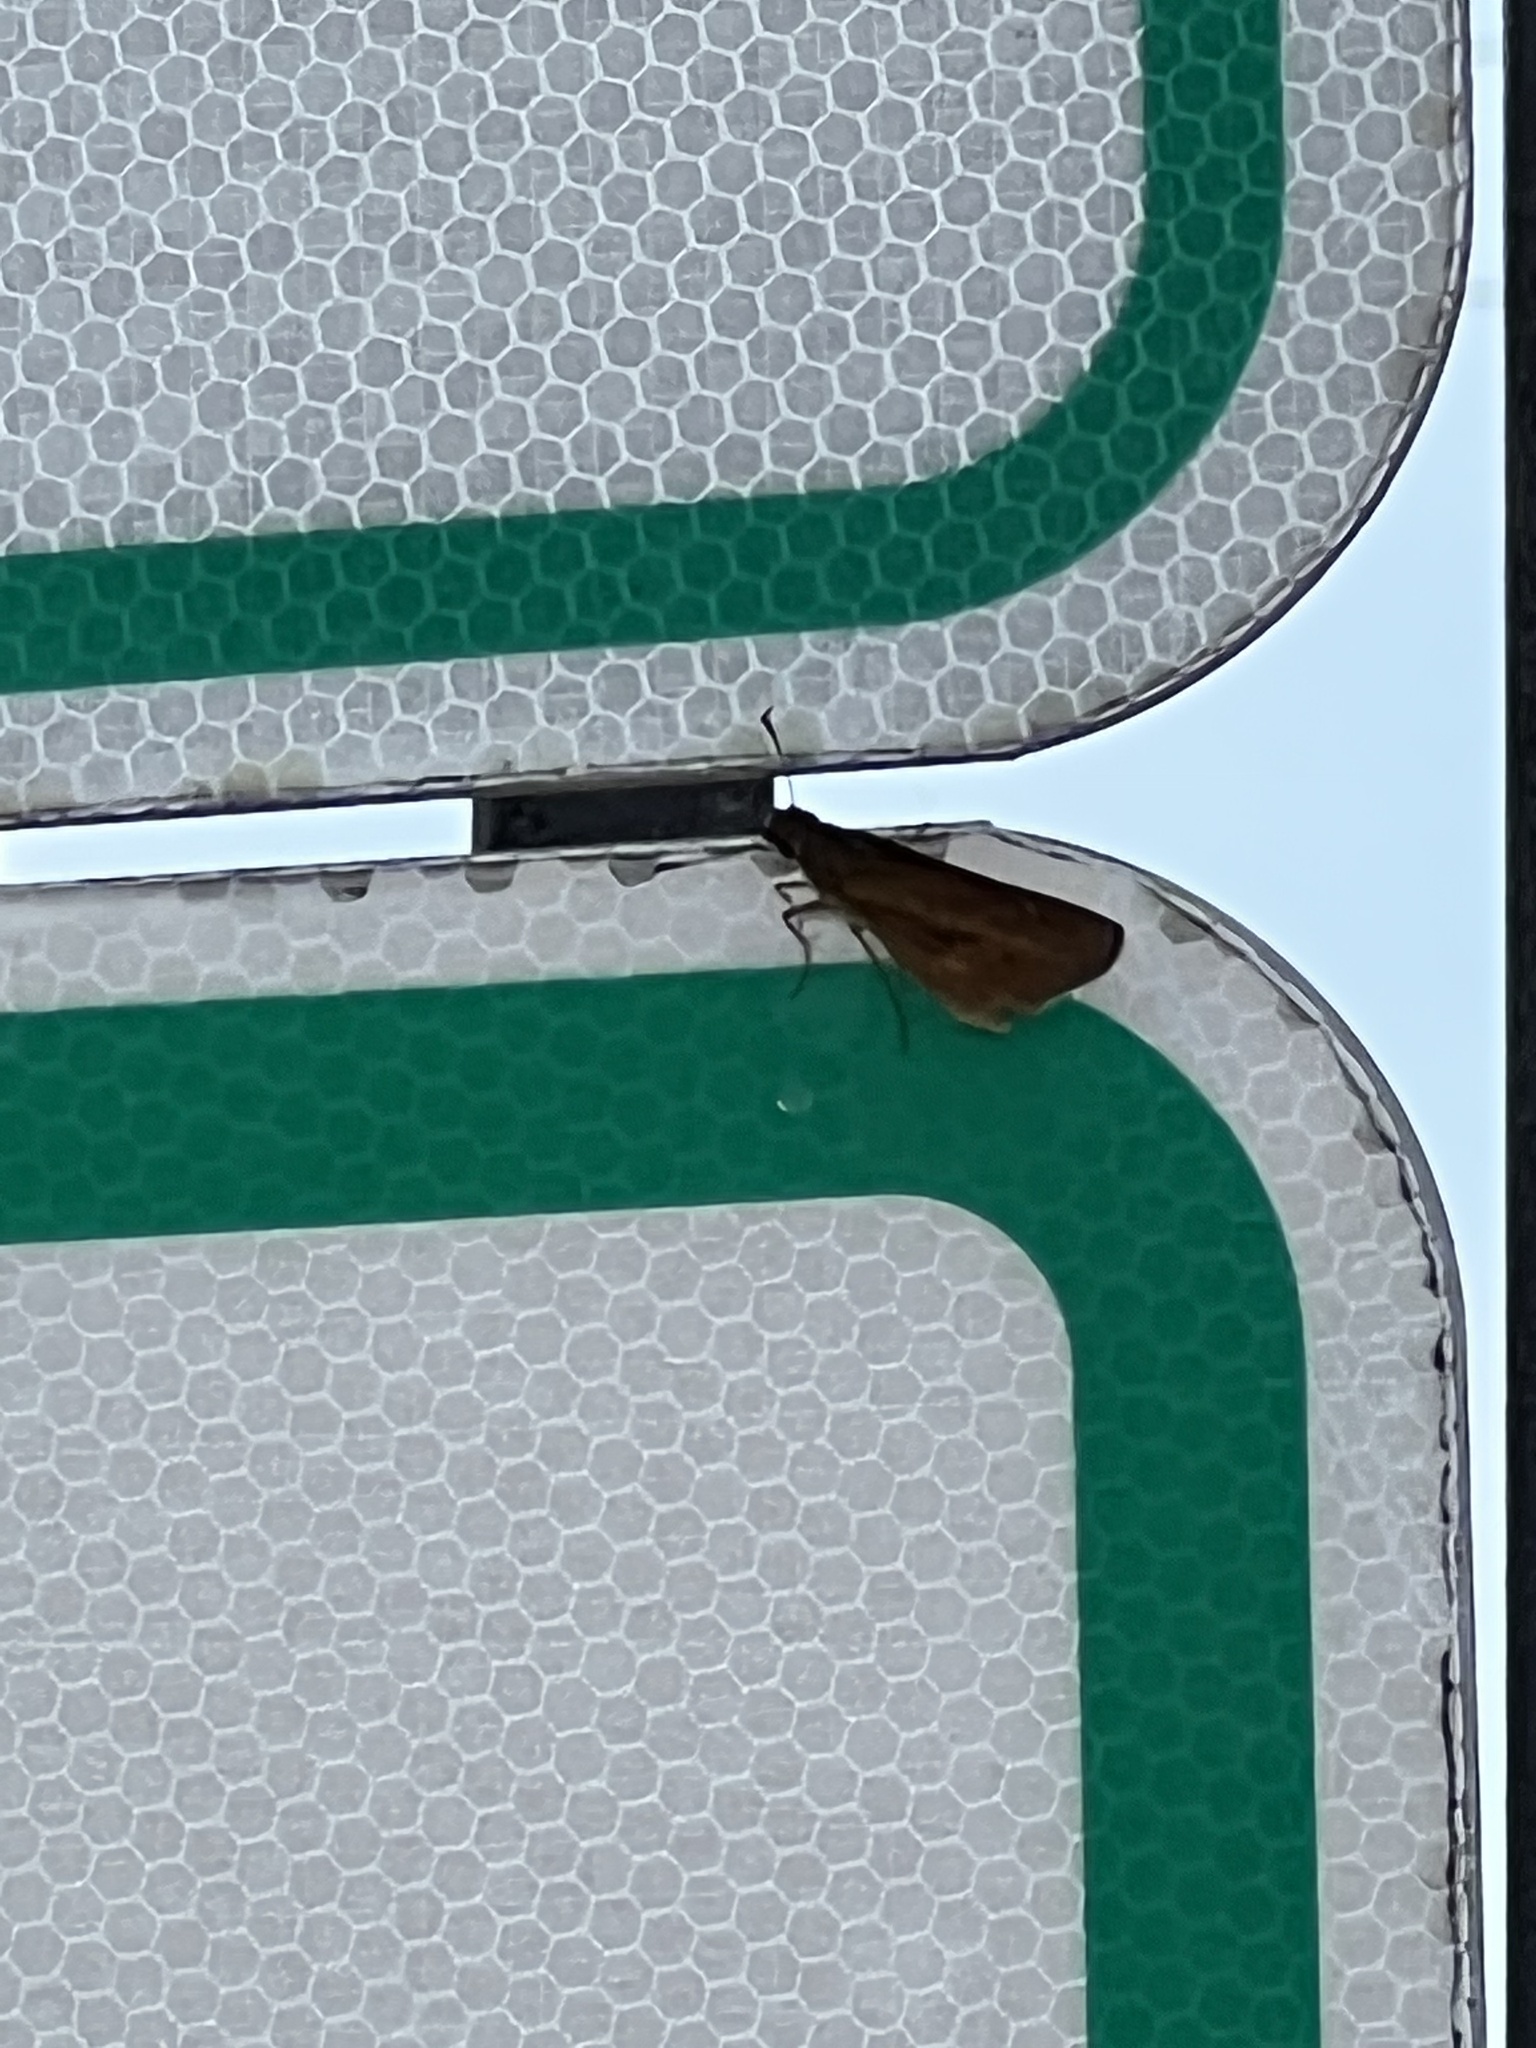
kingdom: Animalia
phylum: Arthropoda
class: Insecta
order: Lepidoptera
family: Hesperiidae
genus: Poanes
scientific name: Poanes viator
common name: Broad-winged skipper
